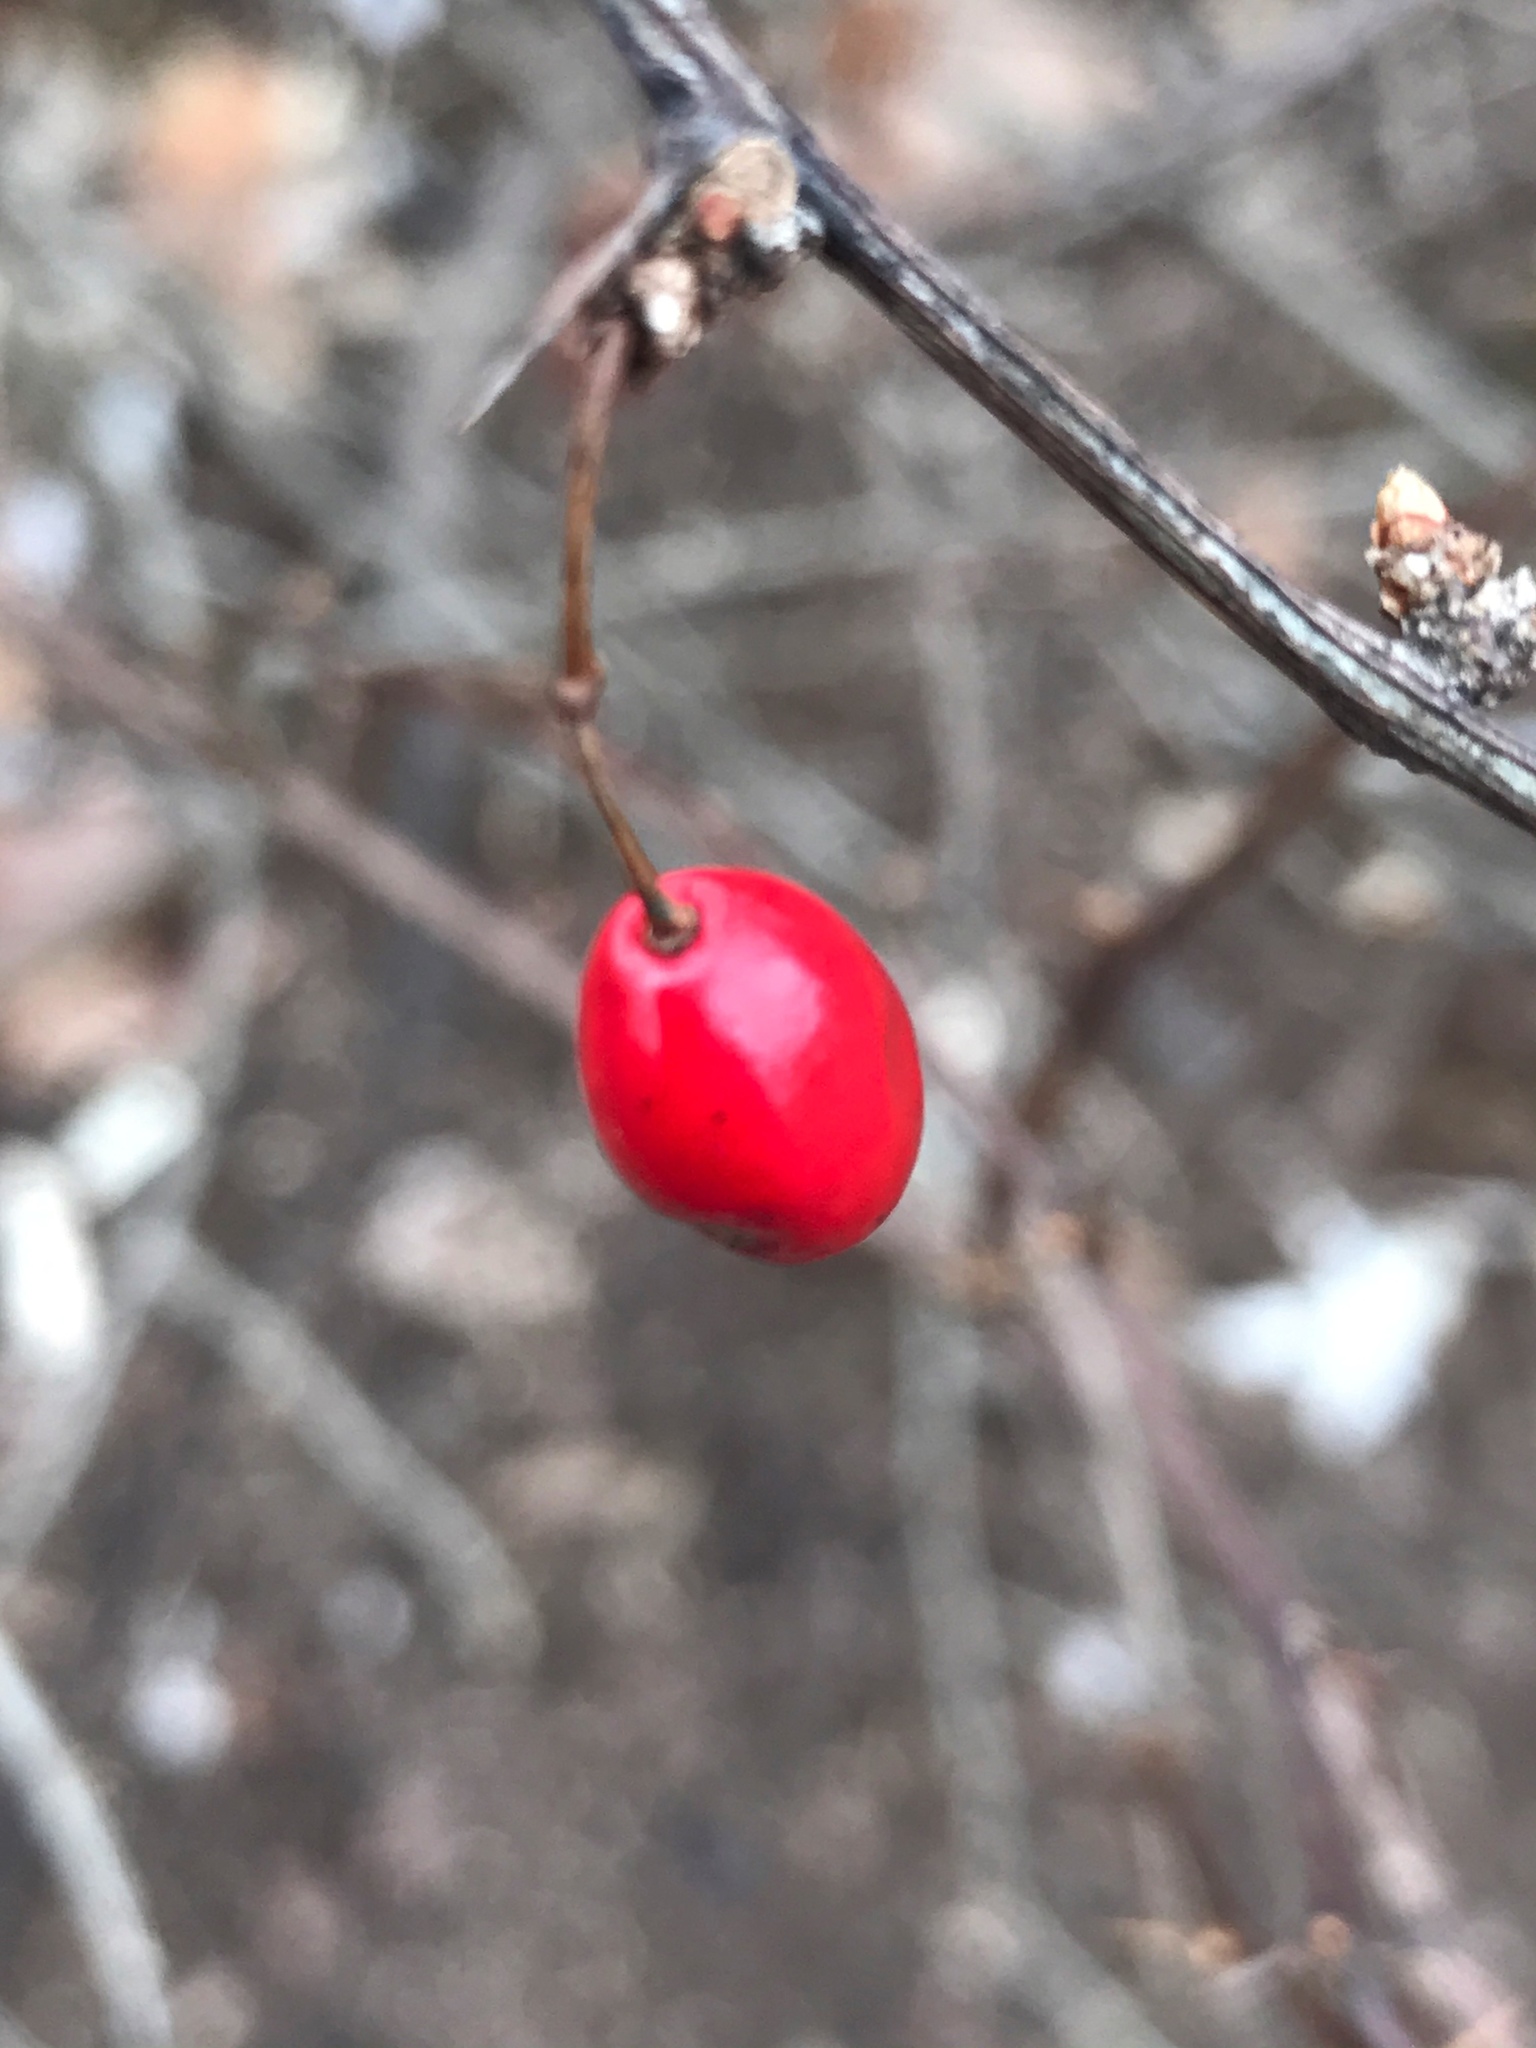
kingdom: Plantae
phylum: Tracheophyta
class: Magnoliopsida
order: Ranunculales
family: Berberidaceae
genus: Berberis
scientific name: Berberis thunbergii
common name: Japanese barberry
